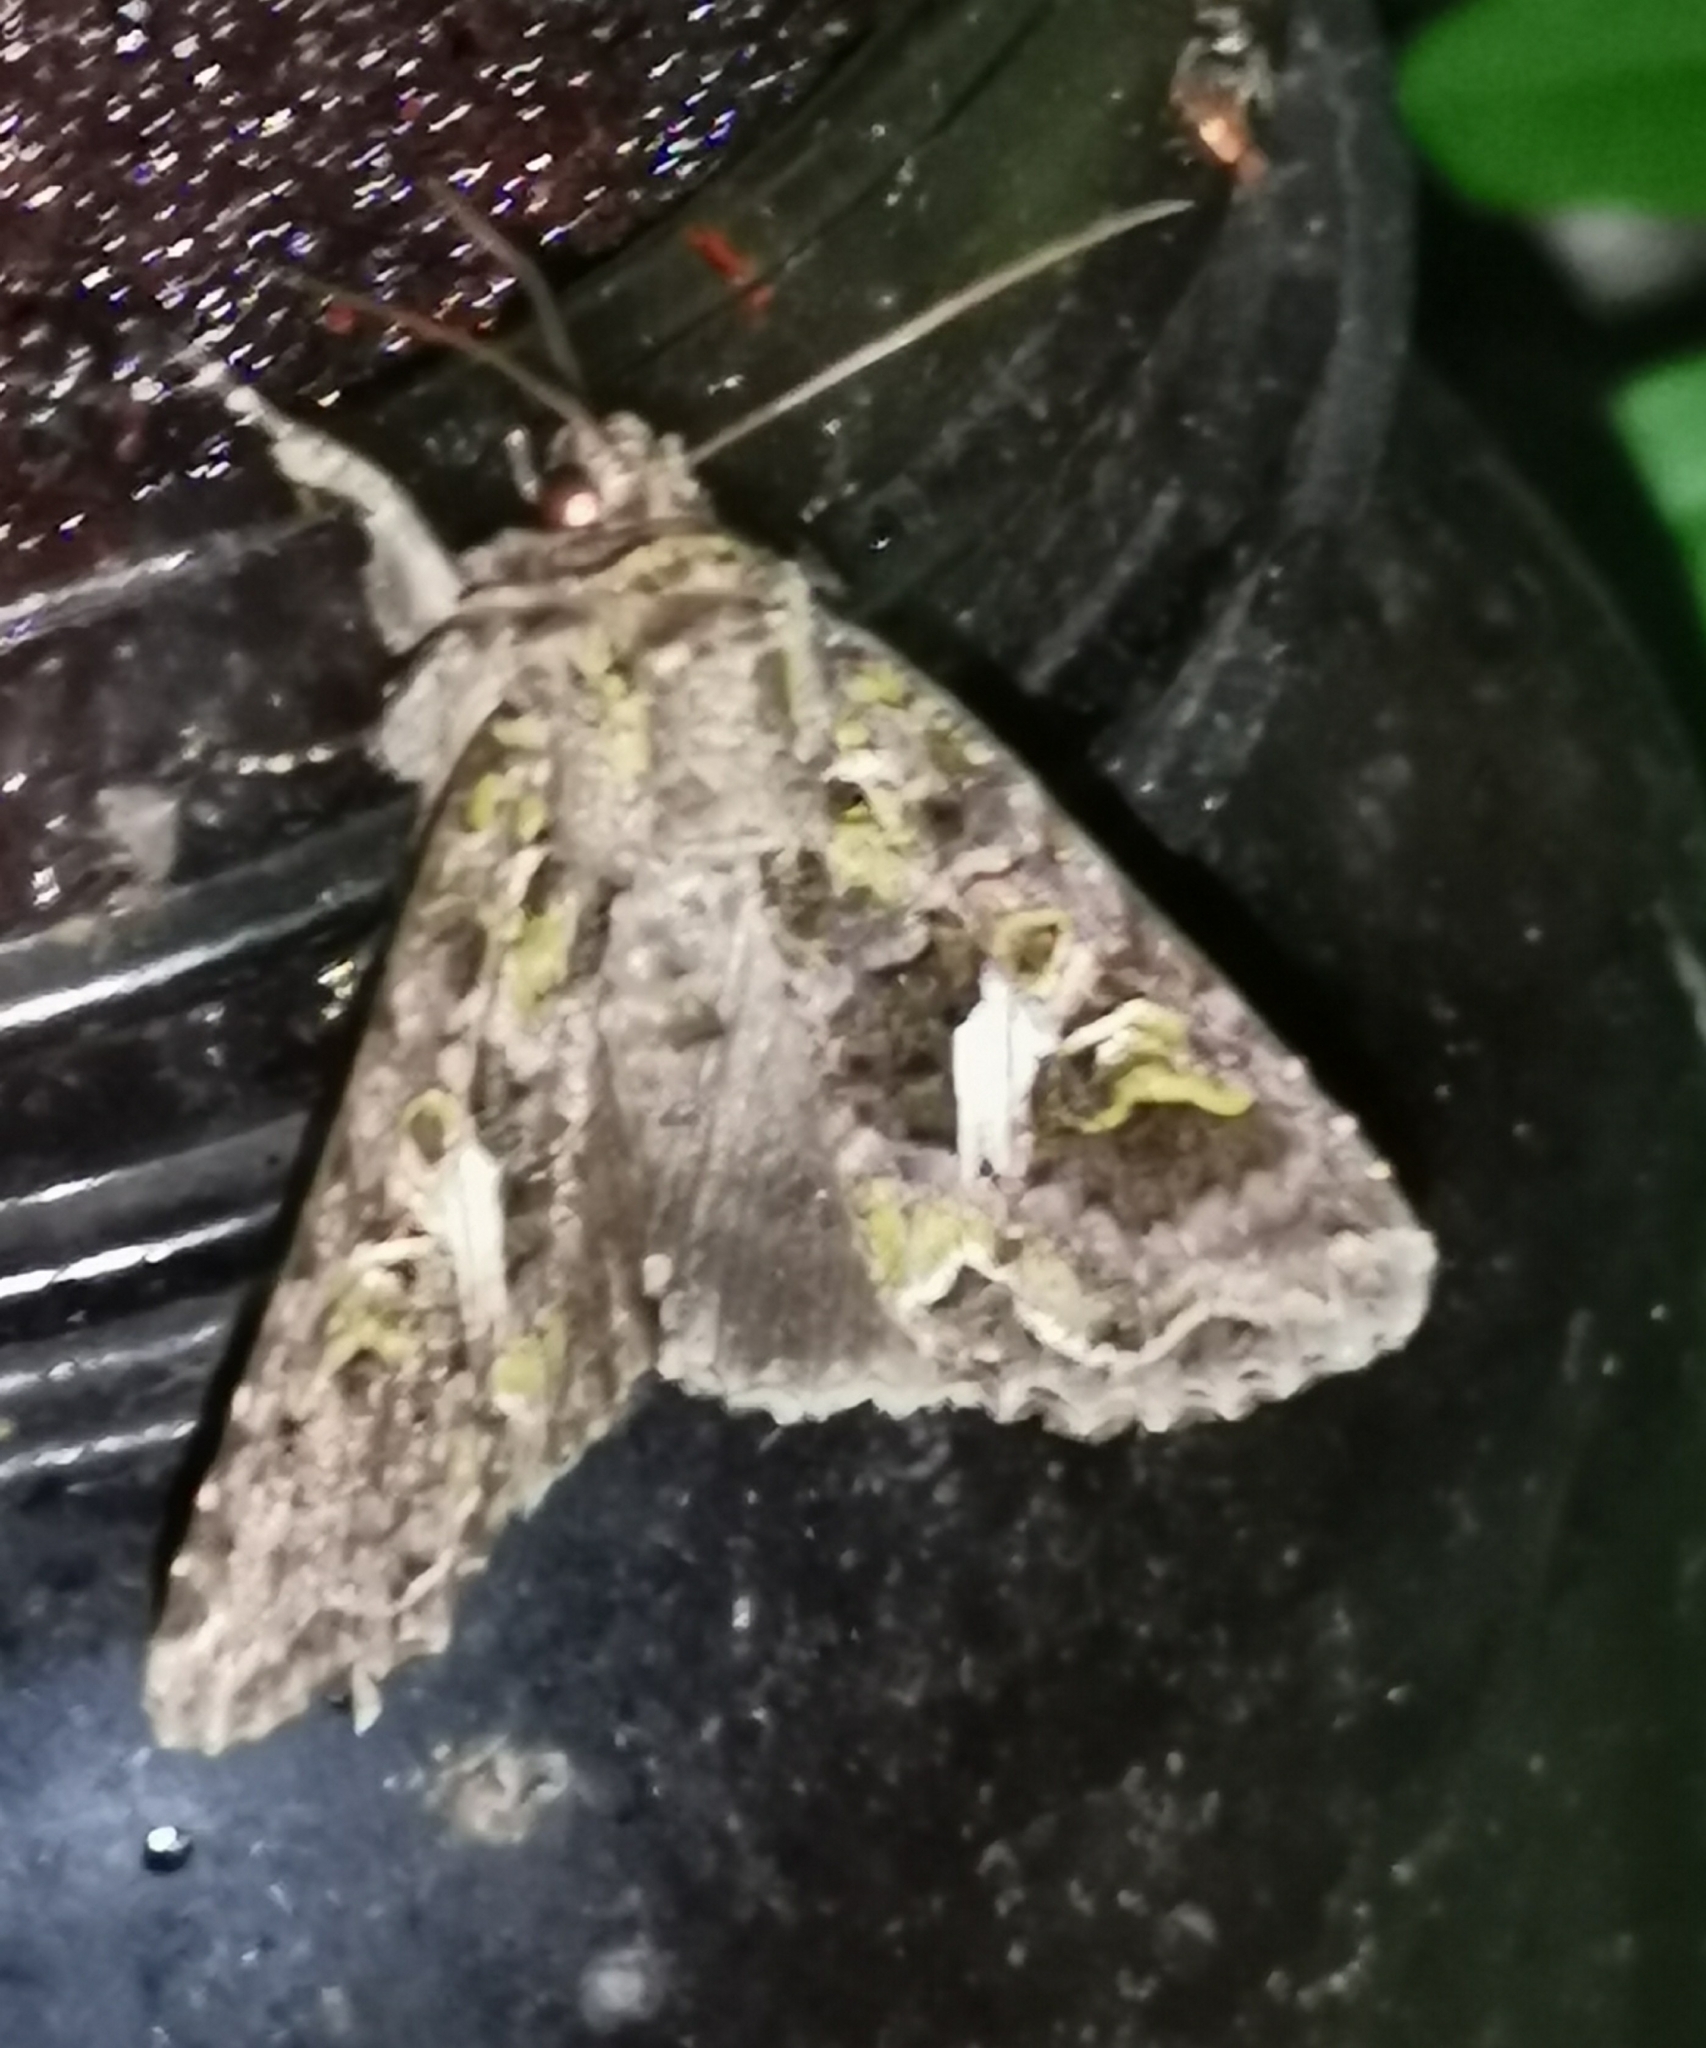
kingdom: Animalia
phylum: Arthropoda
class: Insecta
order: Lepidoptera
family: Noctuidae
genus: Trachea
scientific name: Trachea atriplicis
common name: Orache moth
